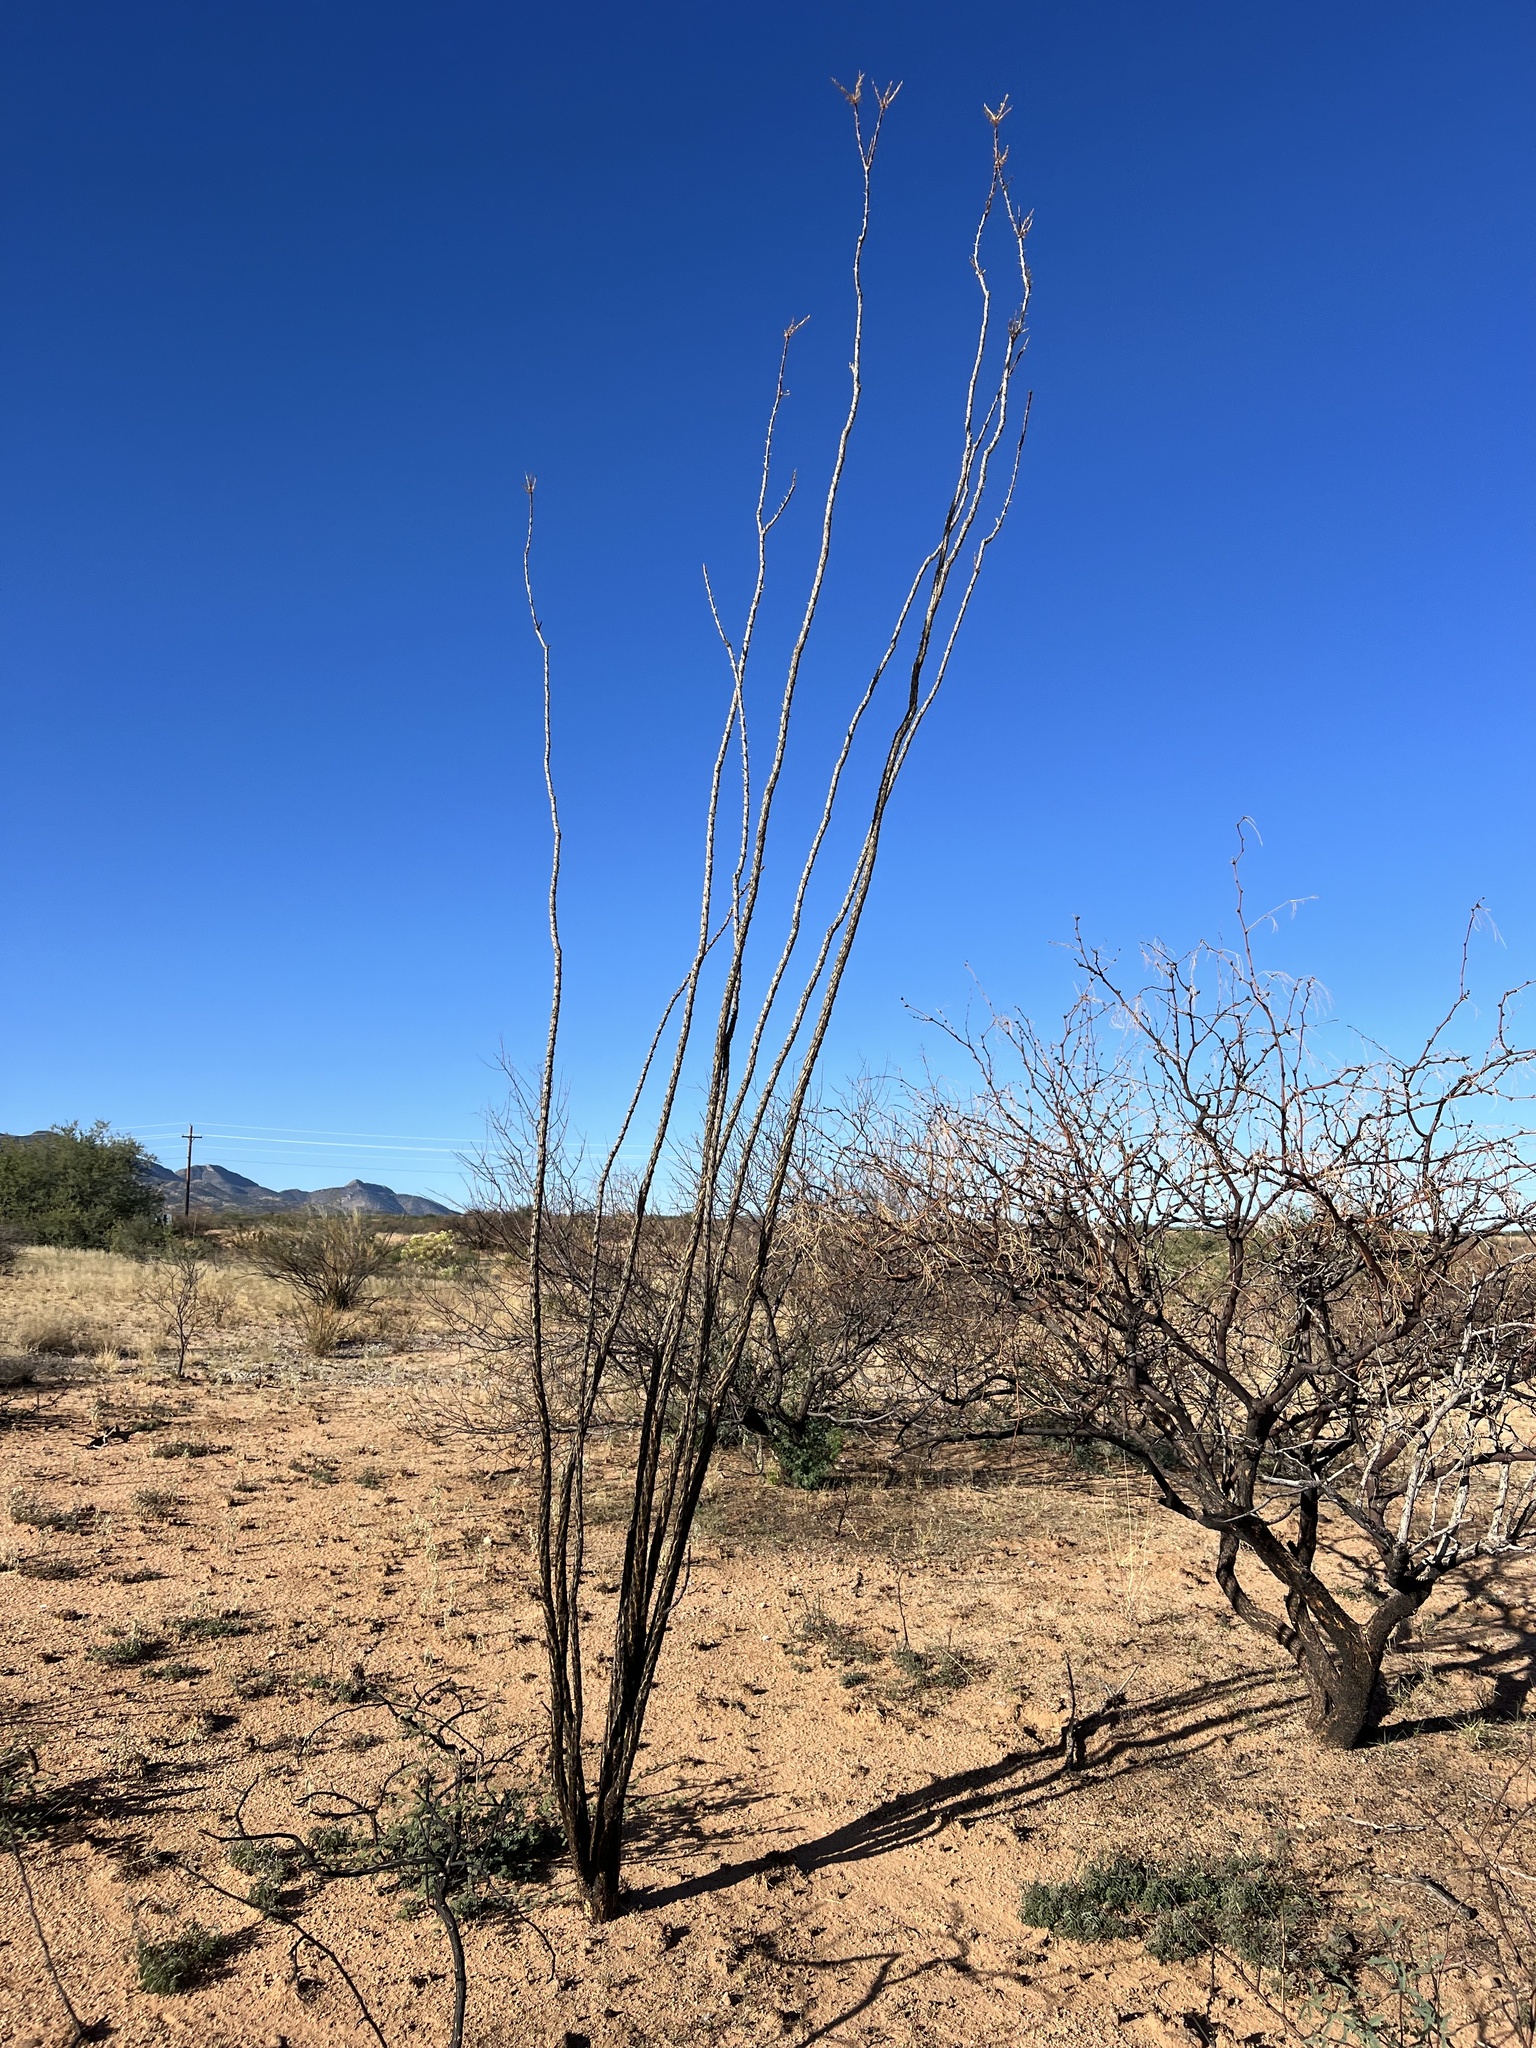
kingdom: Plantae
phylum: Tracheophyta
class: Magnoliopsida
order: Ericales
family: Fouquieriaceae
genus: Fouquieria
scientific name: Fouquieria splendens
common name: Vine-cactus
